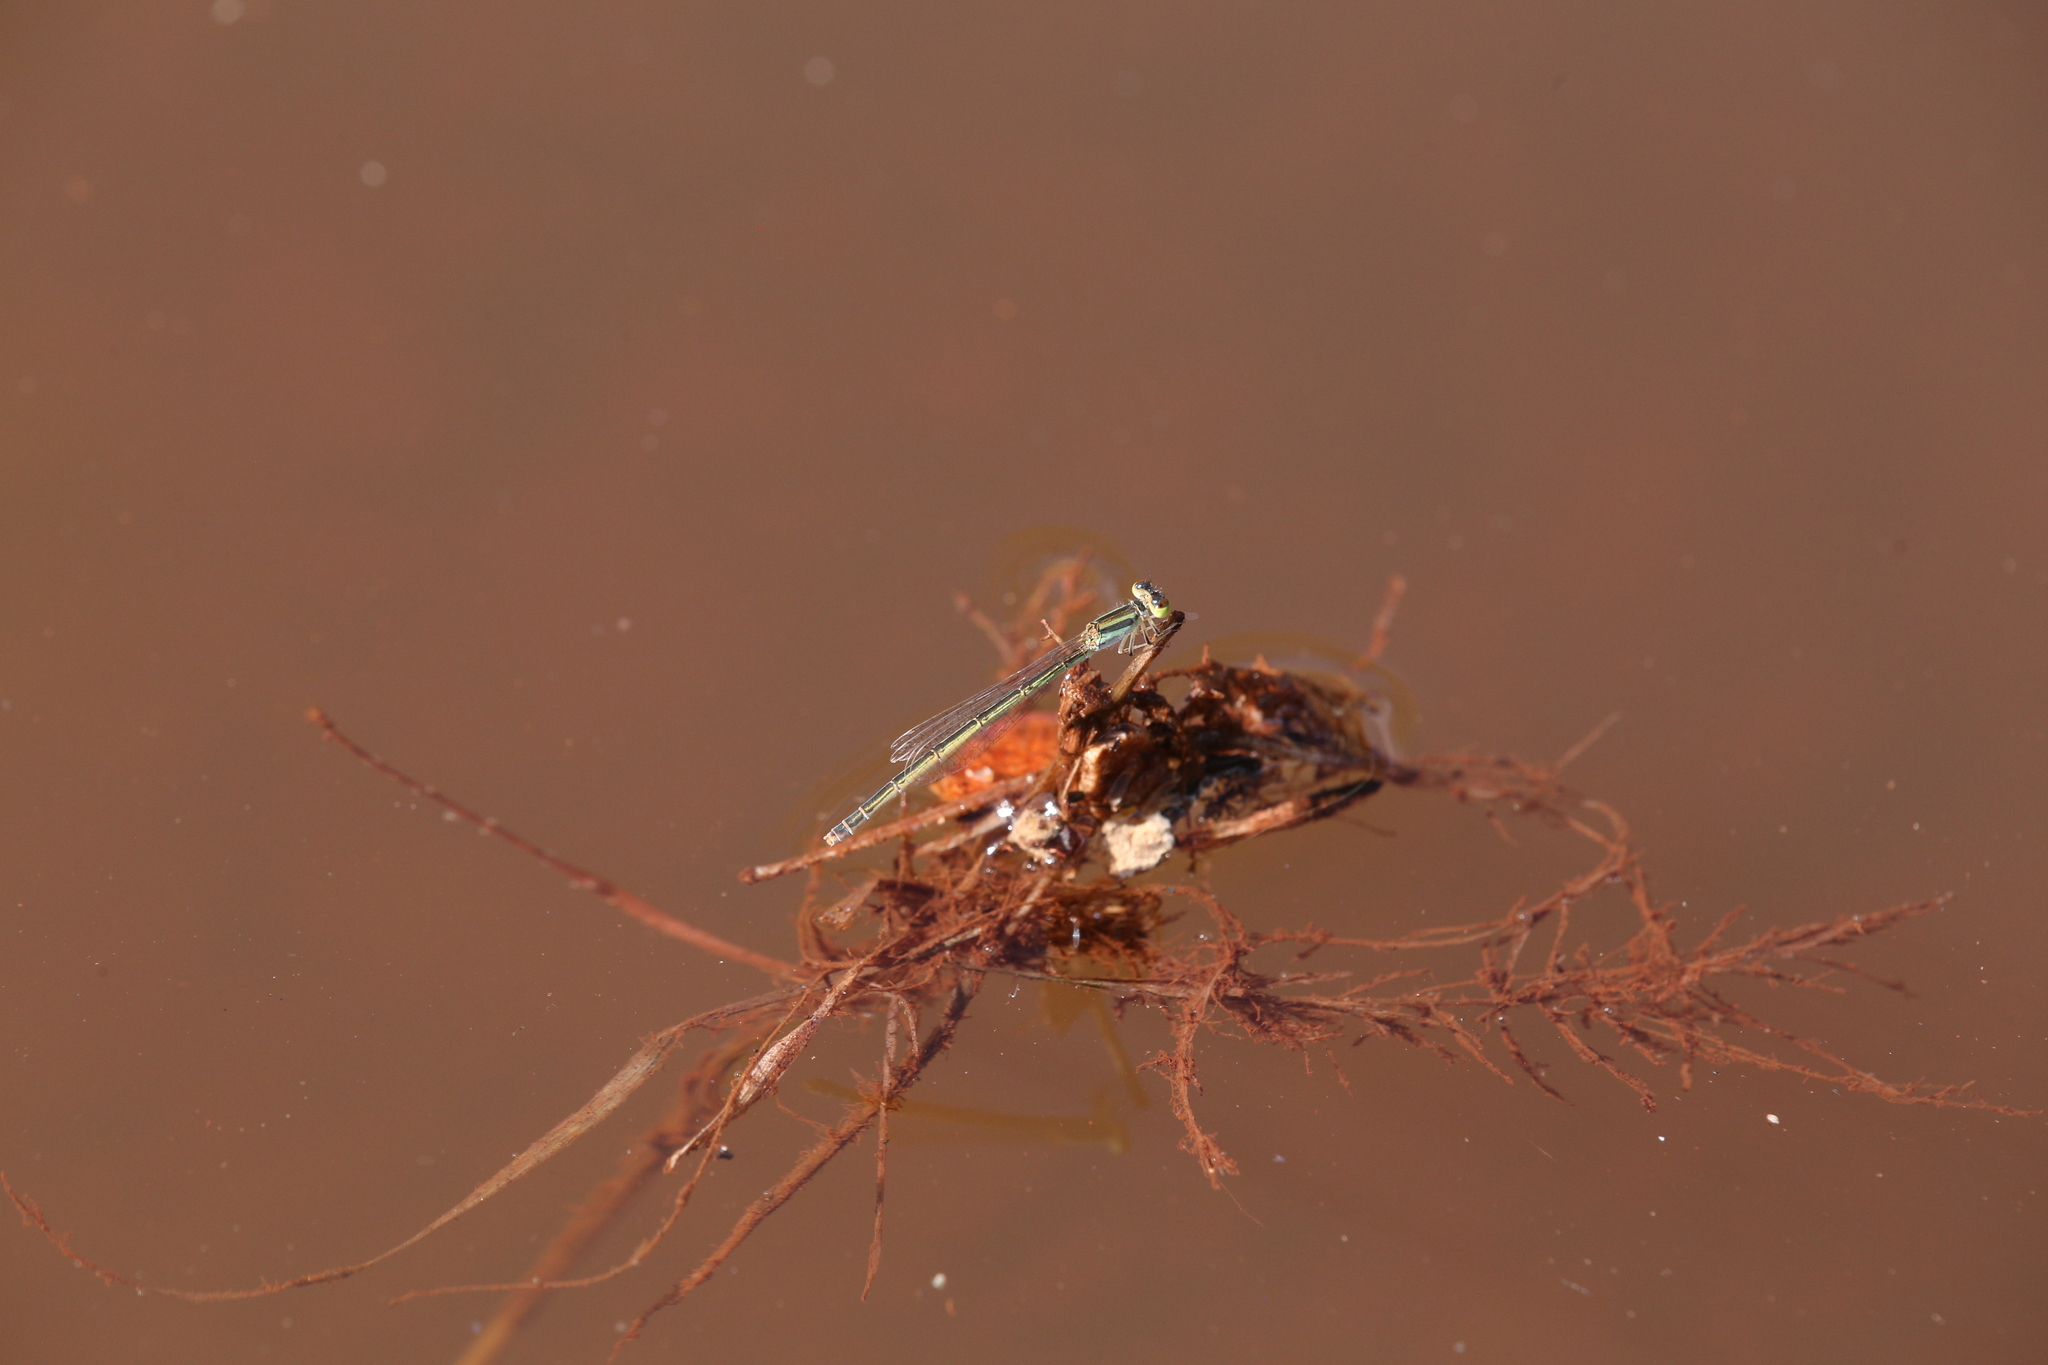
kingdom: Animalia
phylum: Arthropoda
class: Insecta
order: Odonata
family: Coenagrionidae
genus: Ischnura
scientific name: Ischnura aurora
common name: Gossamer damselfly
